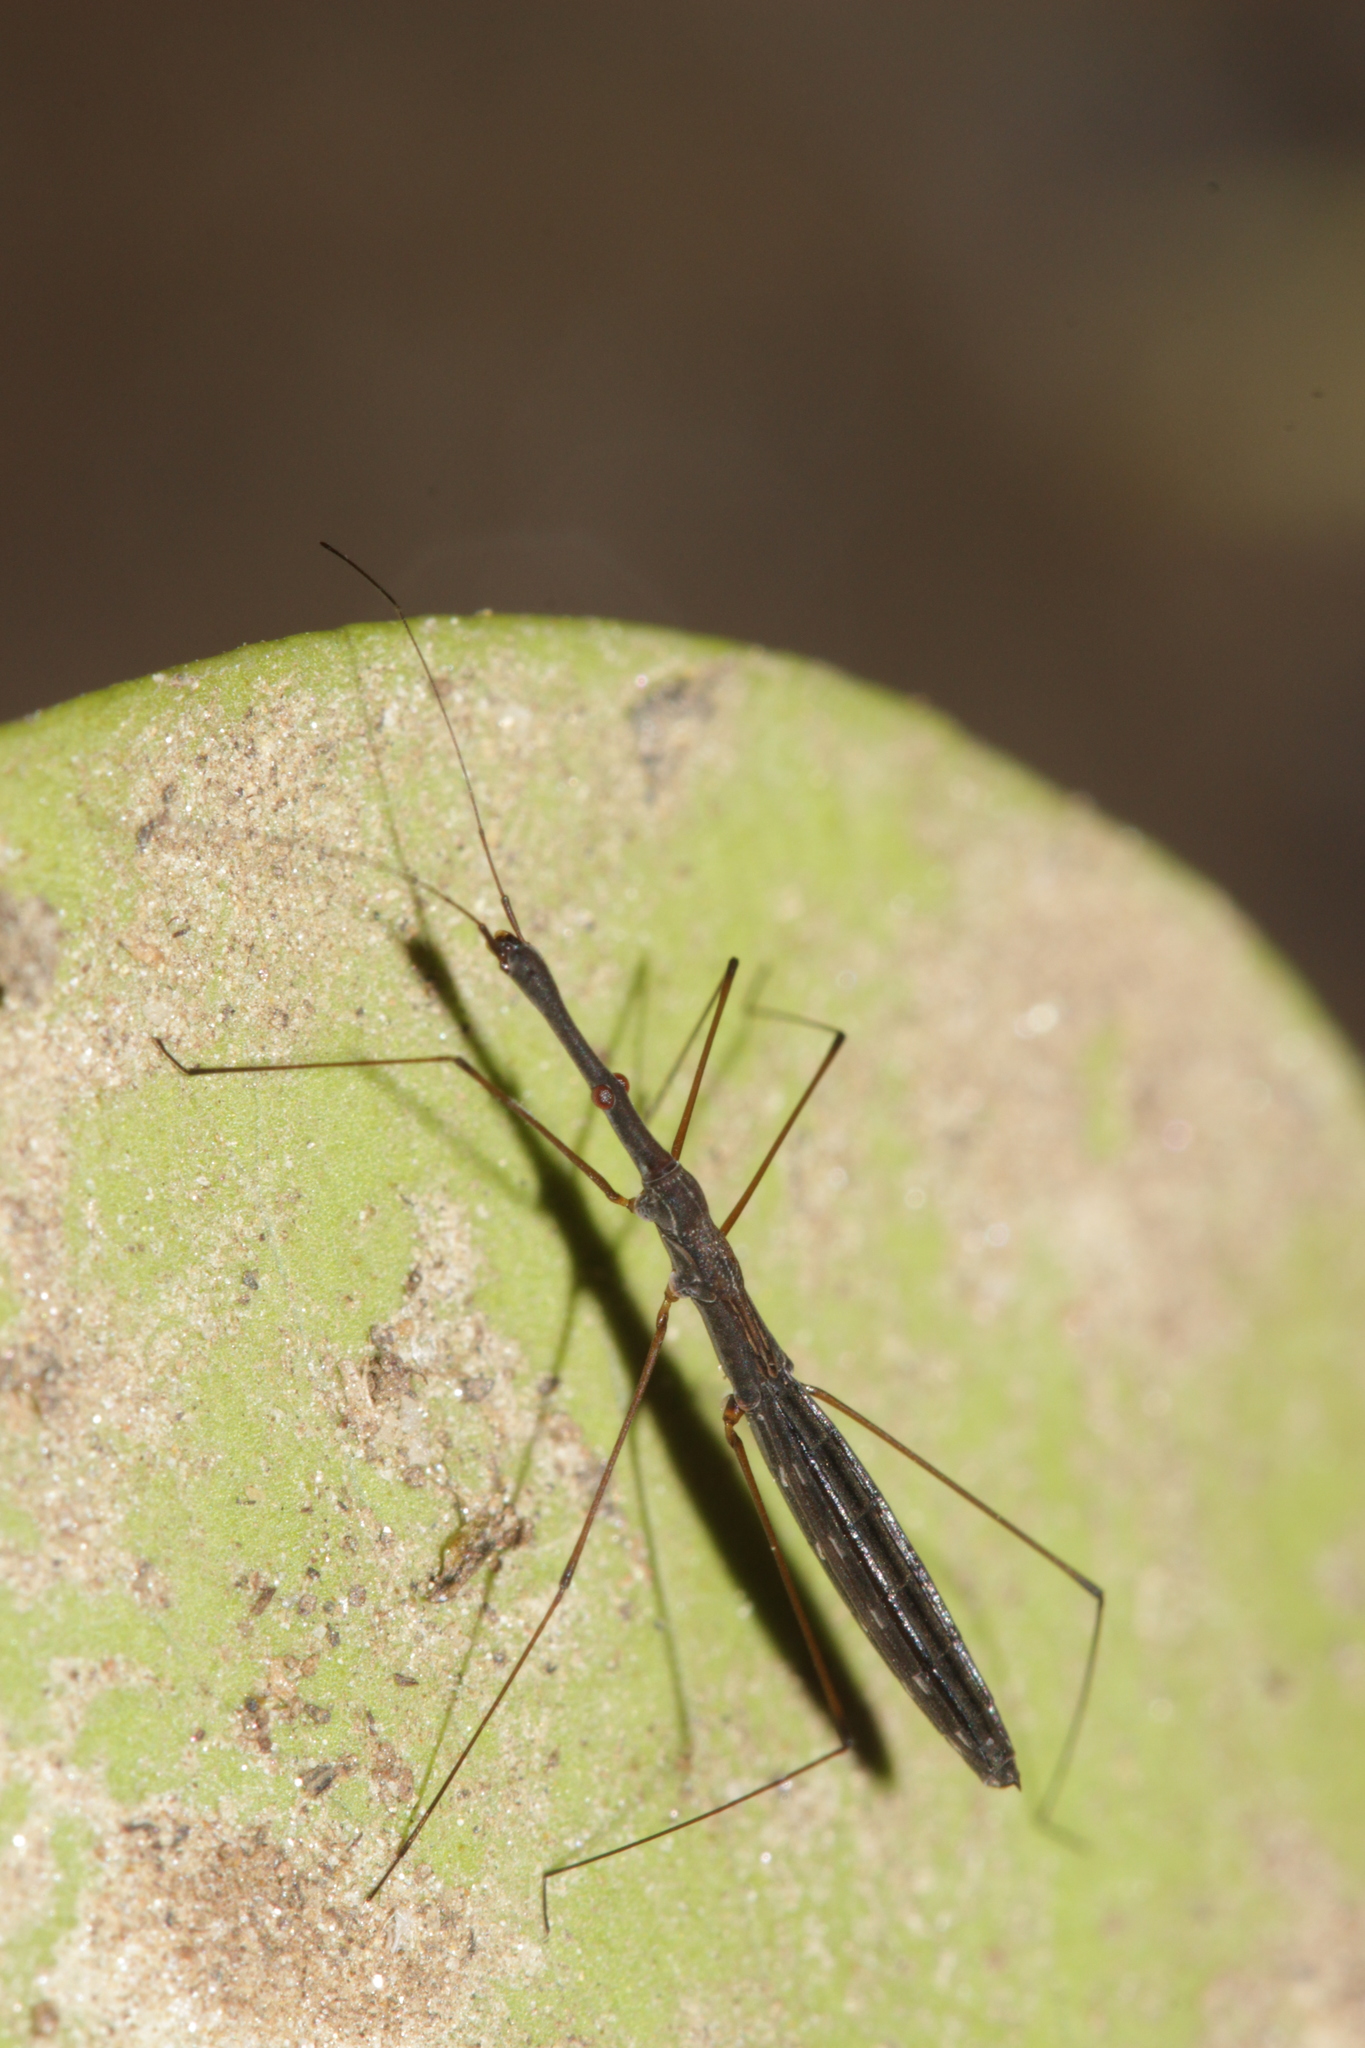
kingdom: Animalia
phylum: Arthropoda
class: Insecta
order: Hemiptera
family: Hydrometridae
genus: Hydrometra
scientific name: Hydrometra stagnorum
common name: Water measurer
